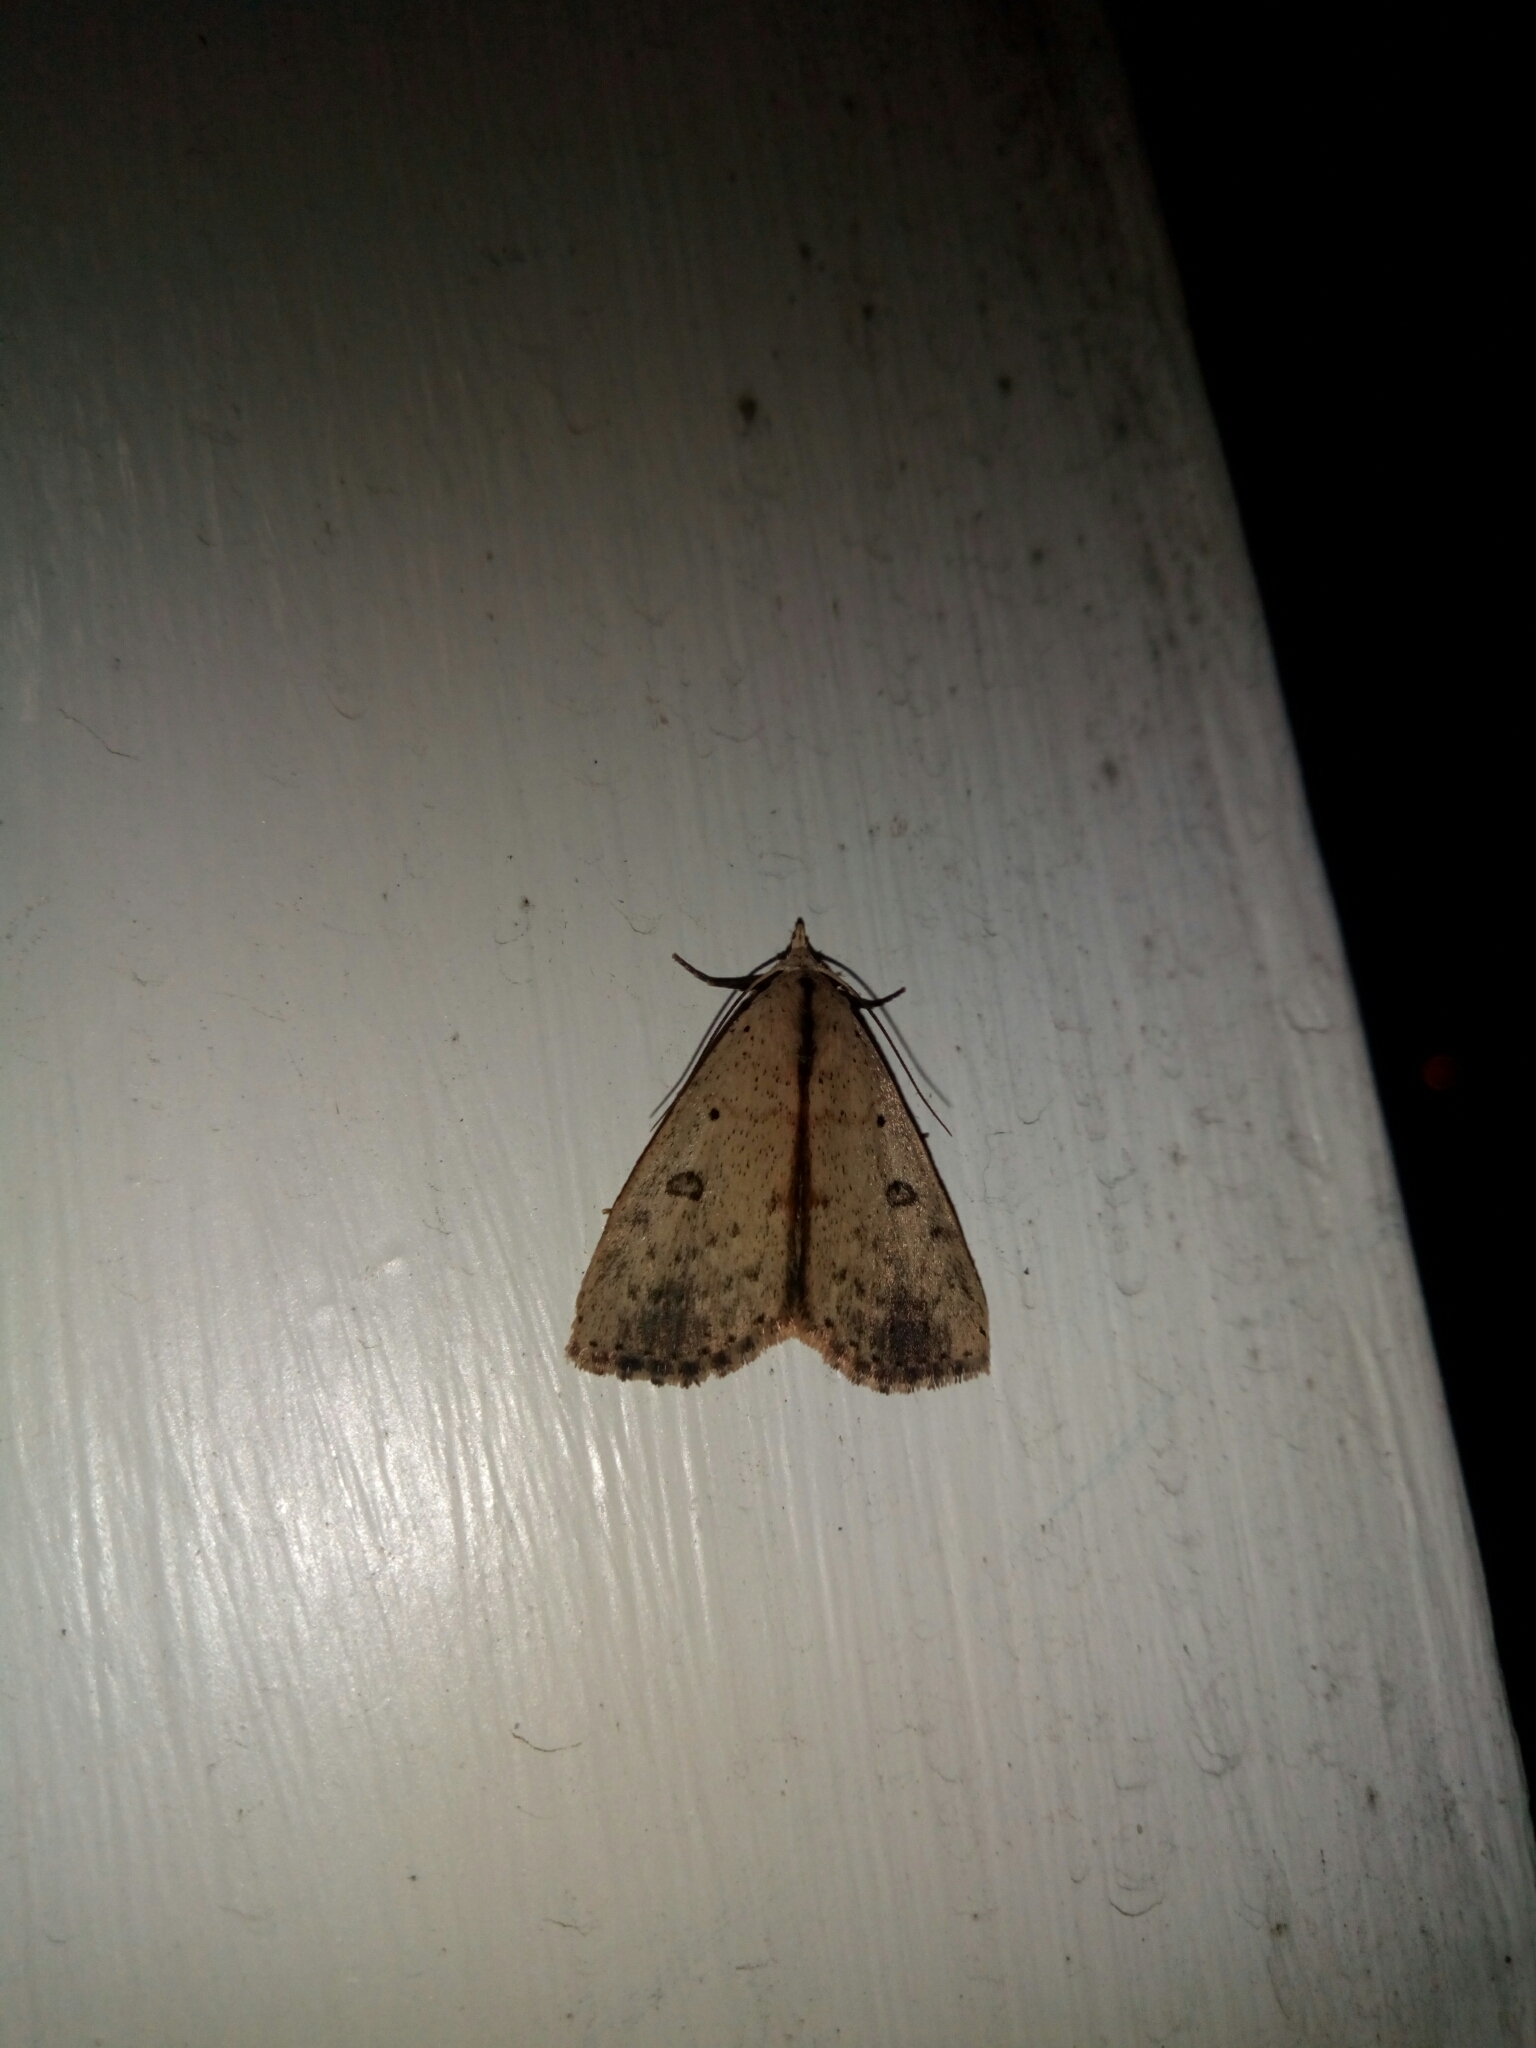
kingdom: Animalia
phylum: Arthropoda
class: Insecta
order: Lepidoptera
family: Erebidae
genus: Scolecocampa
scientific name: Scolecocampa liburna
